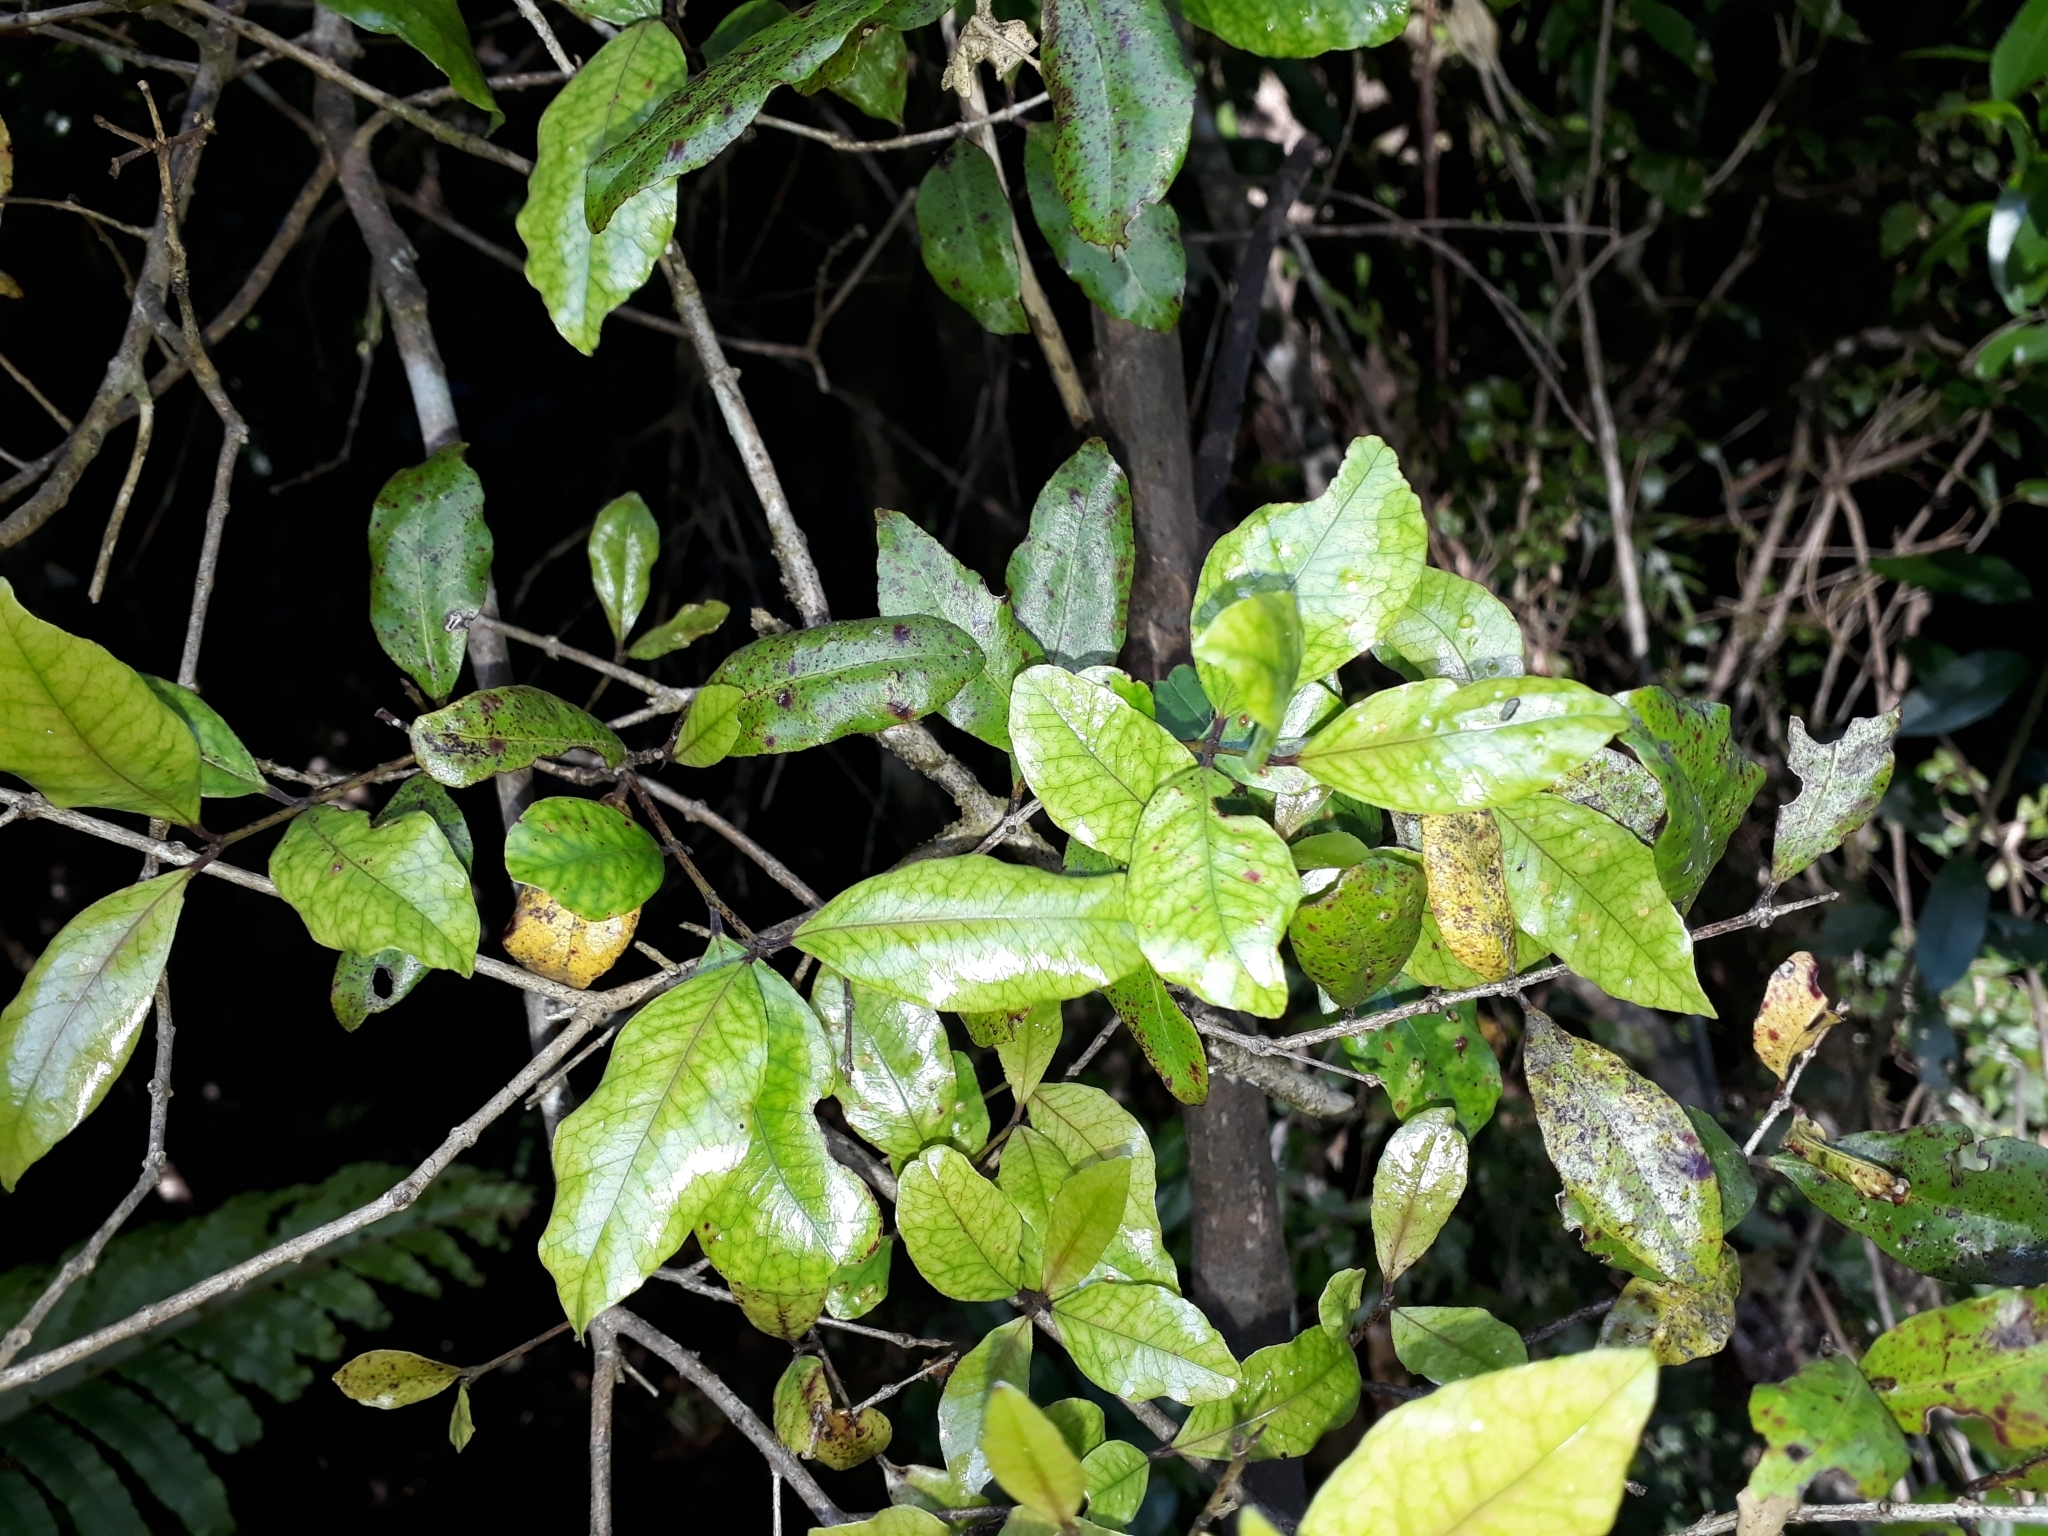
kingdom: Plantae
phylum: Tracheophyta
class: Magnoliopsida
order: Myrtales
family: Myrtaceae
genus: Syzygium
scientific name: Syzygium maire
